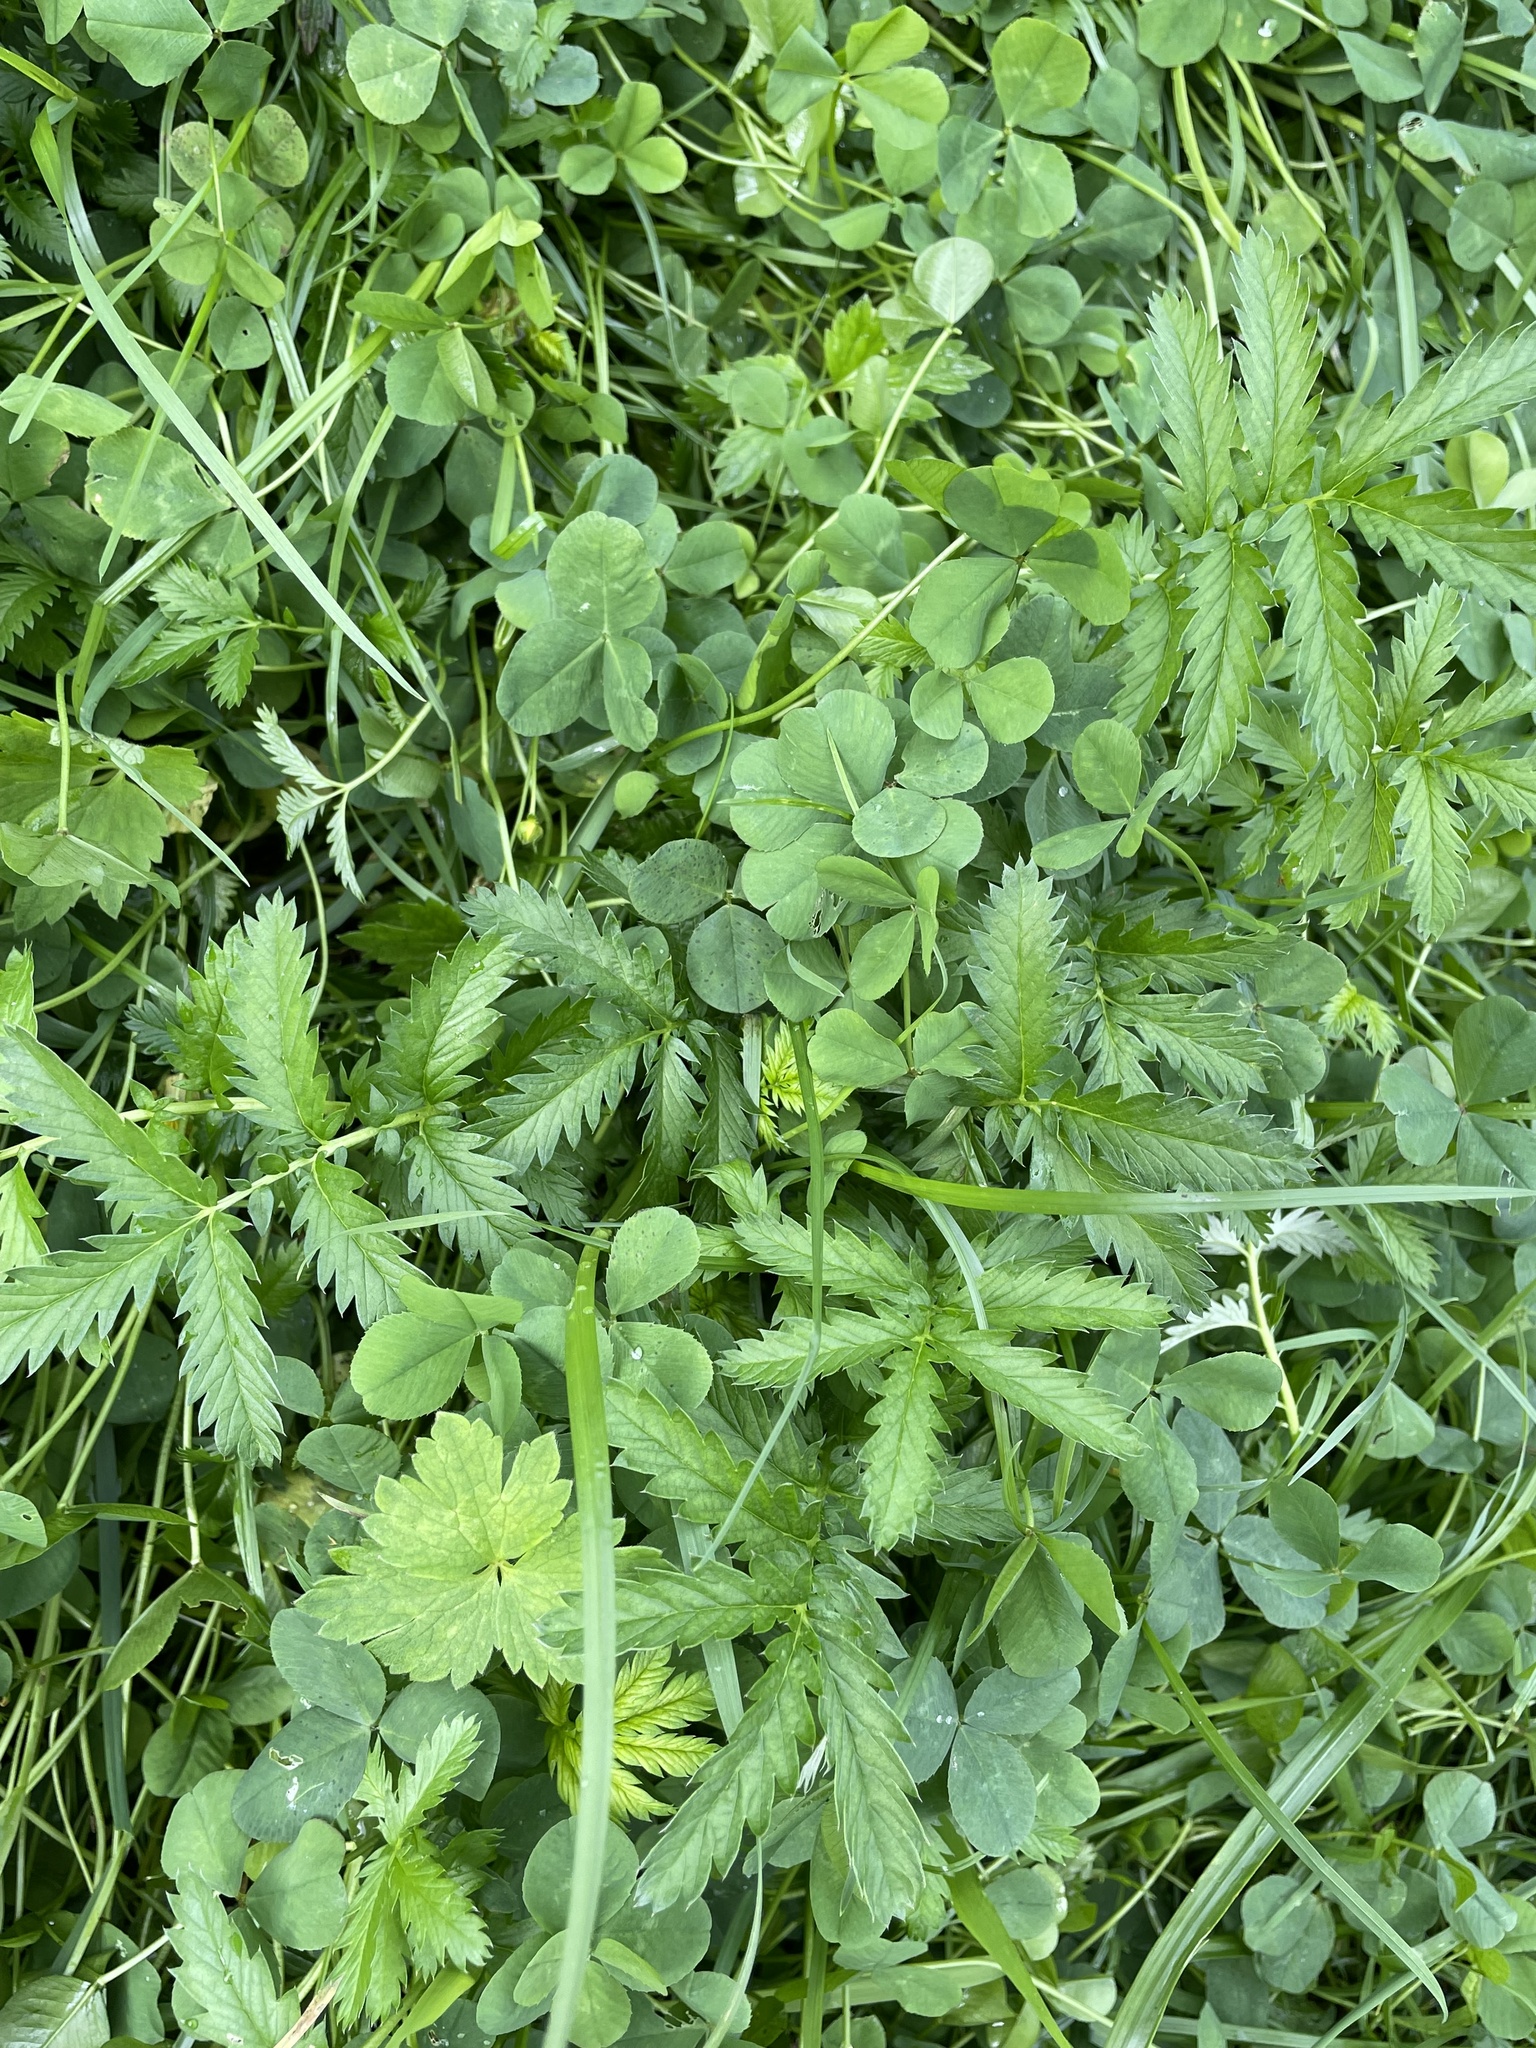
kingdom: Plantae
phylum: Tracheophyta
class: Magnoliopsida
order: Rosales
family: Rosaceae
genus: Argentina
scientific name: Argentina anserina
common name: Common silverweed
